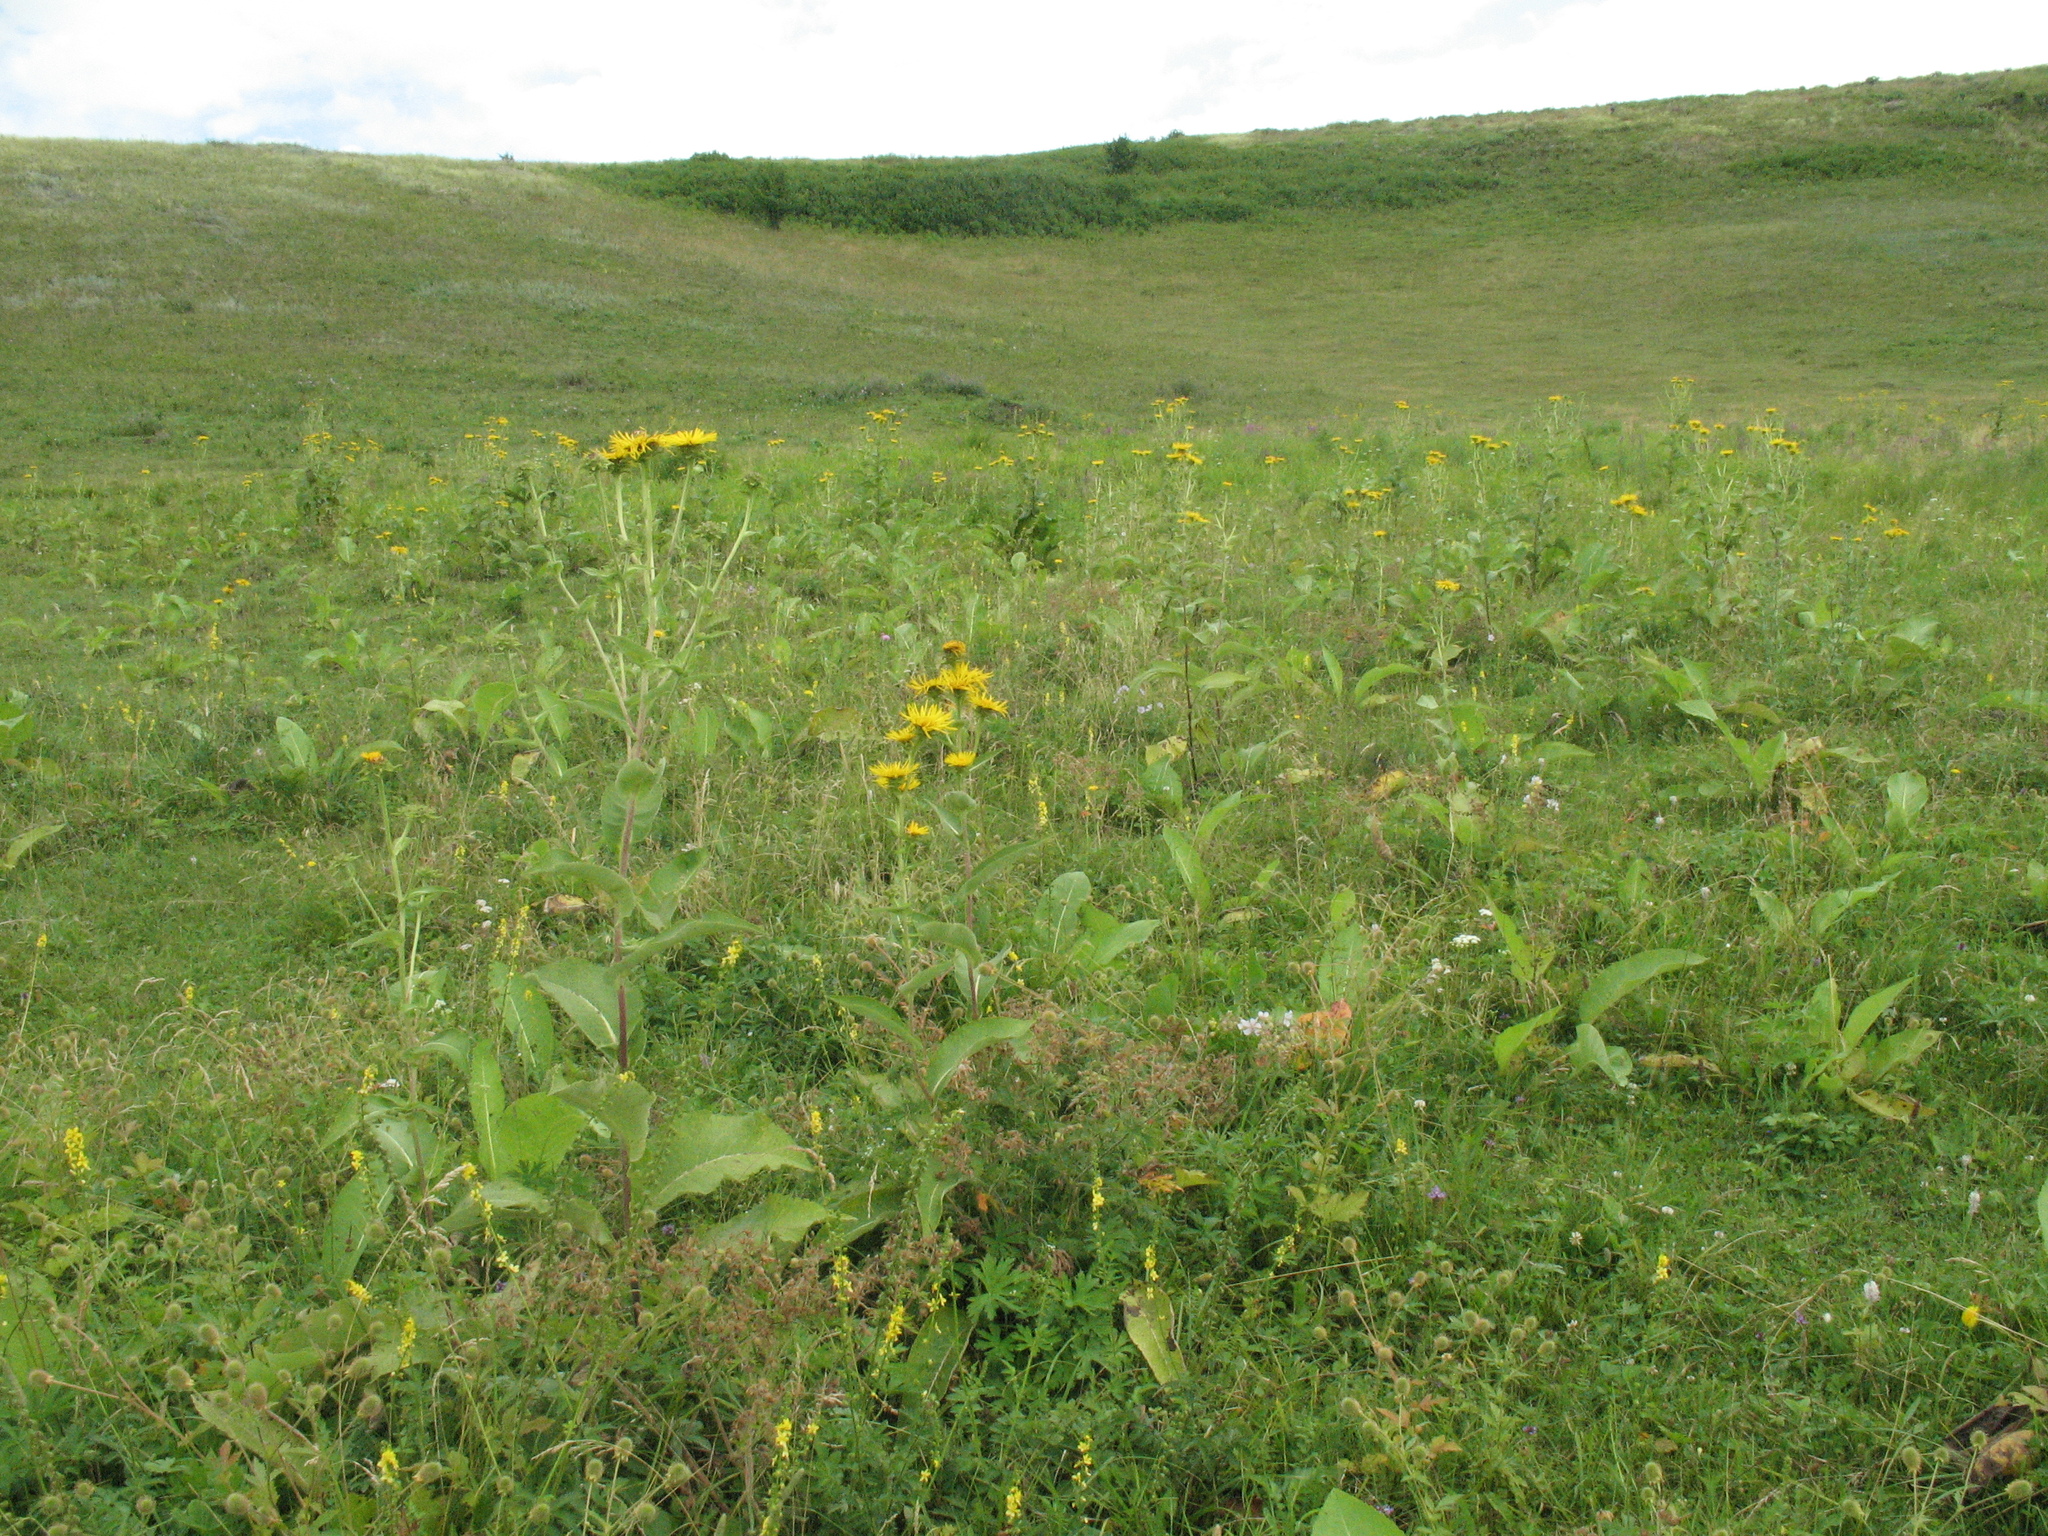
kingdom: Plantae
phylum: Tracheophyta
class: Magnoliopsida
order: Asterales
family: Asteraceae
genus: Inula
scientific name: Inula helenium
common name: Elecampane
